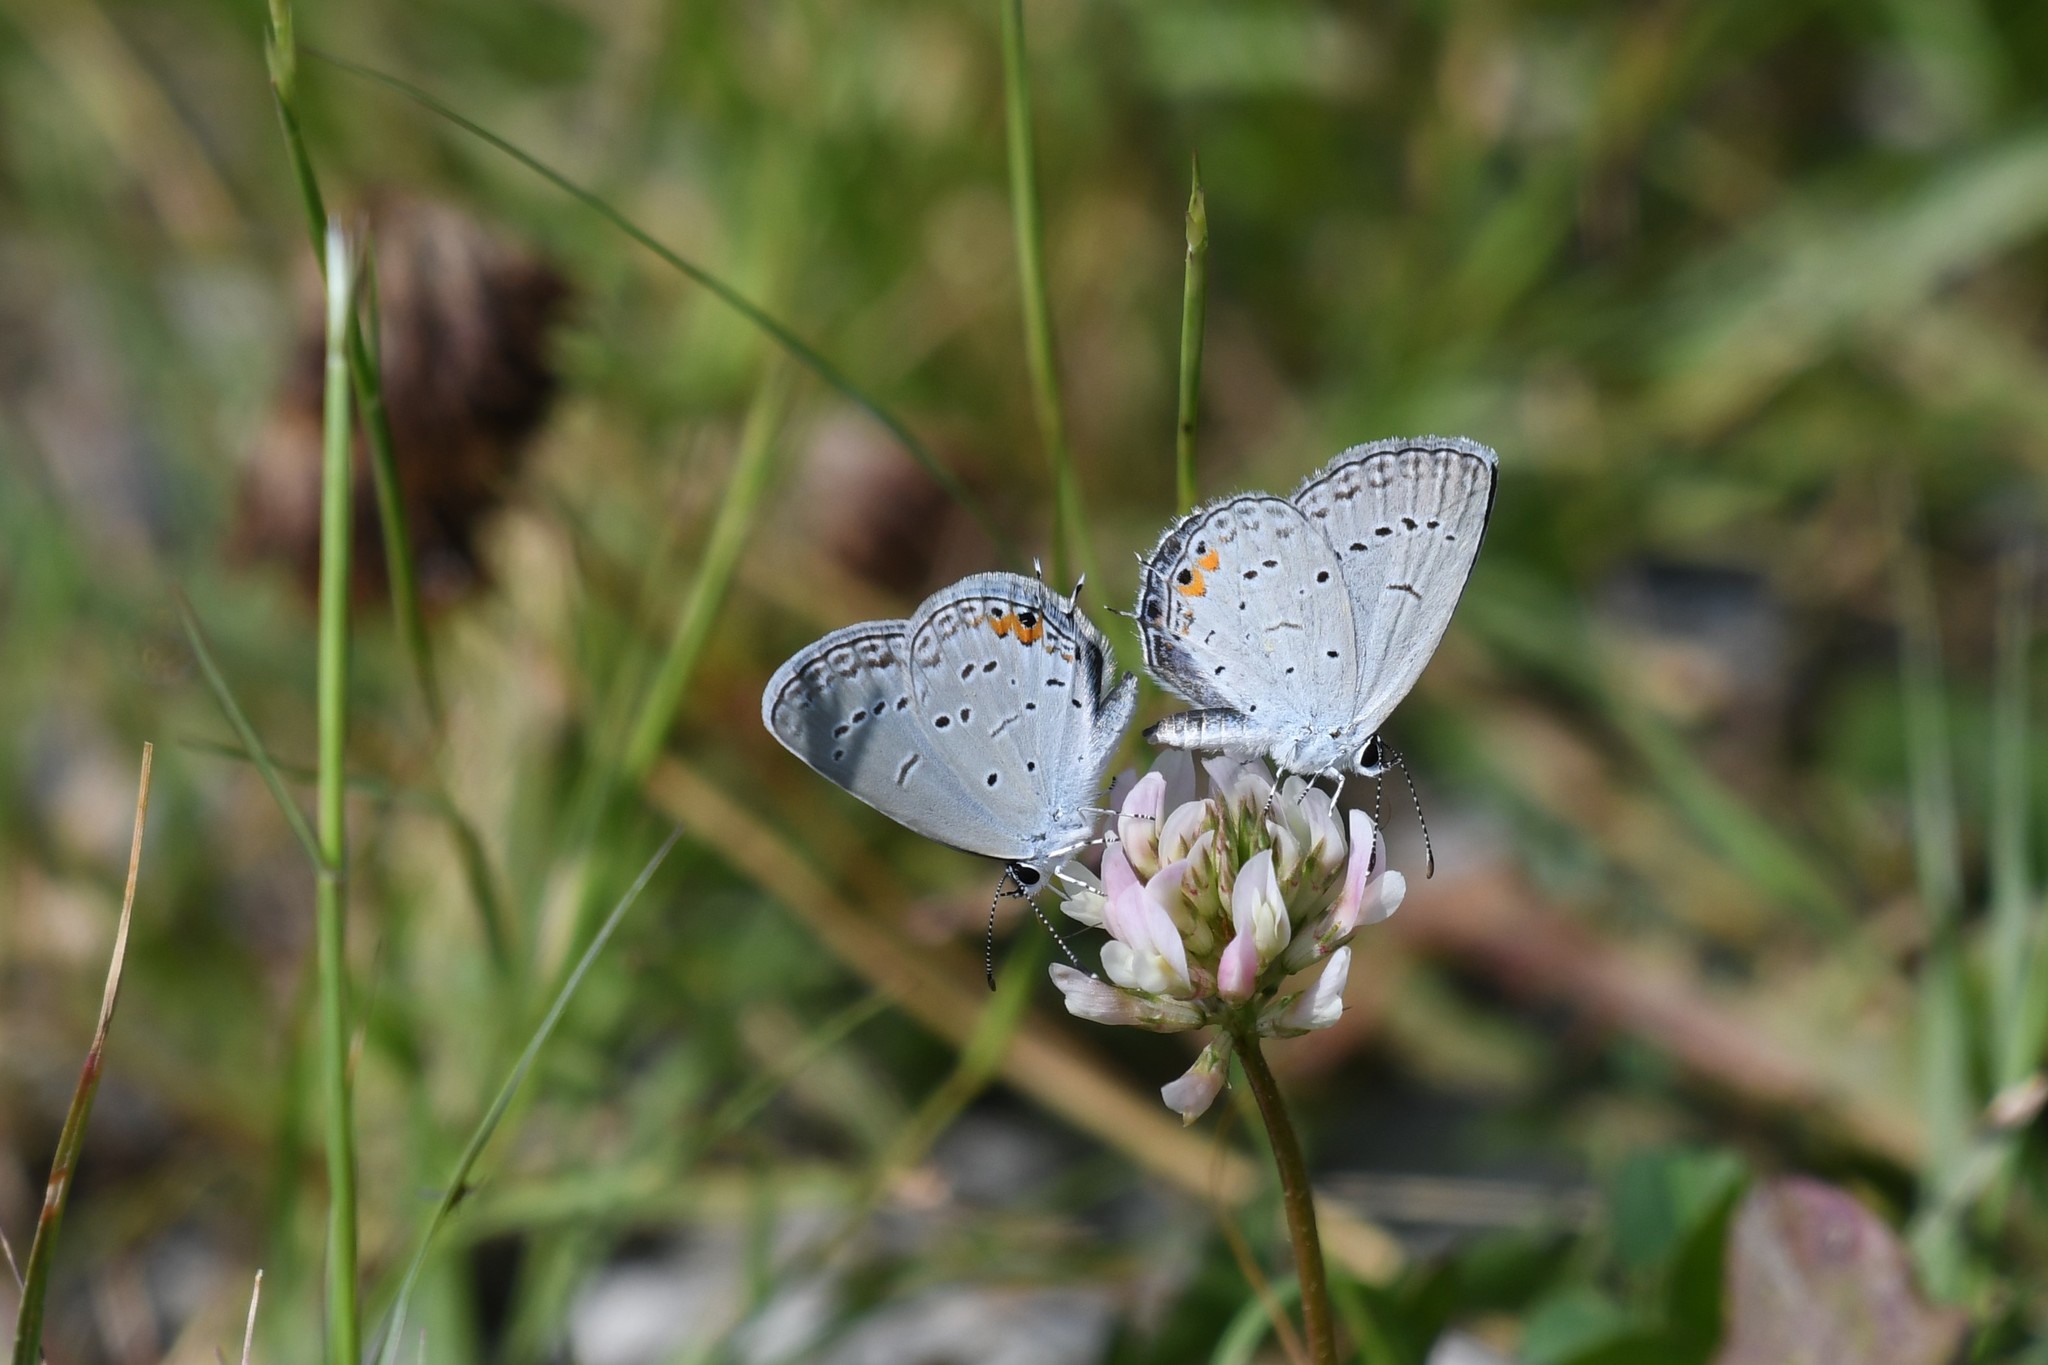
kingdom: Animalia
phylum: Arthropoda
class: Insecta
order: Lepidoptera
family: Lycaenidae
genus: Elkalyce
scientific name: Elkalyce comyntas
